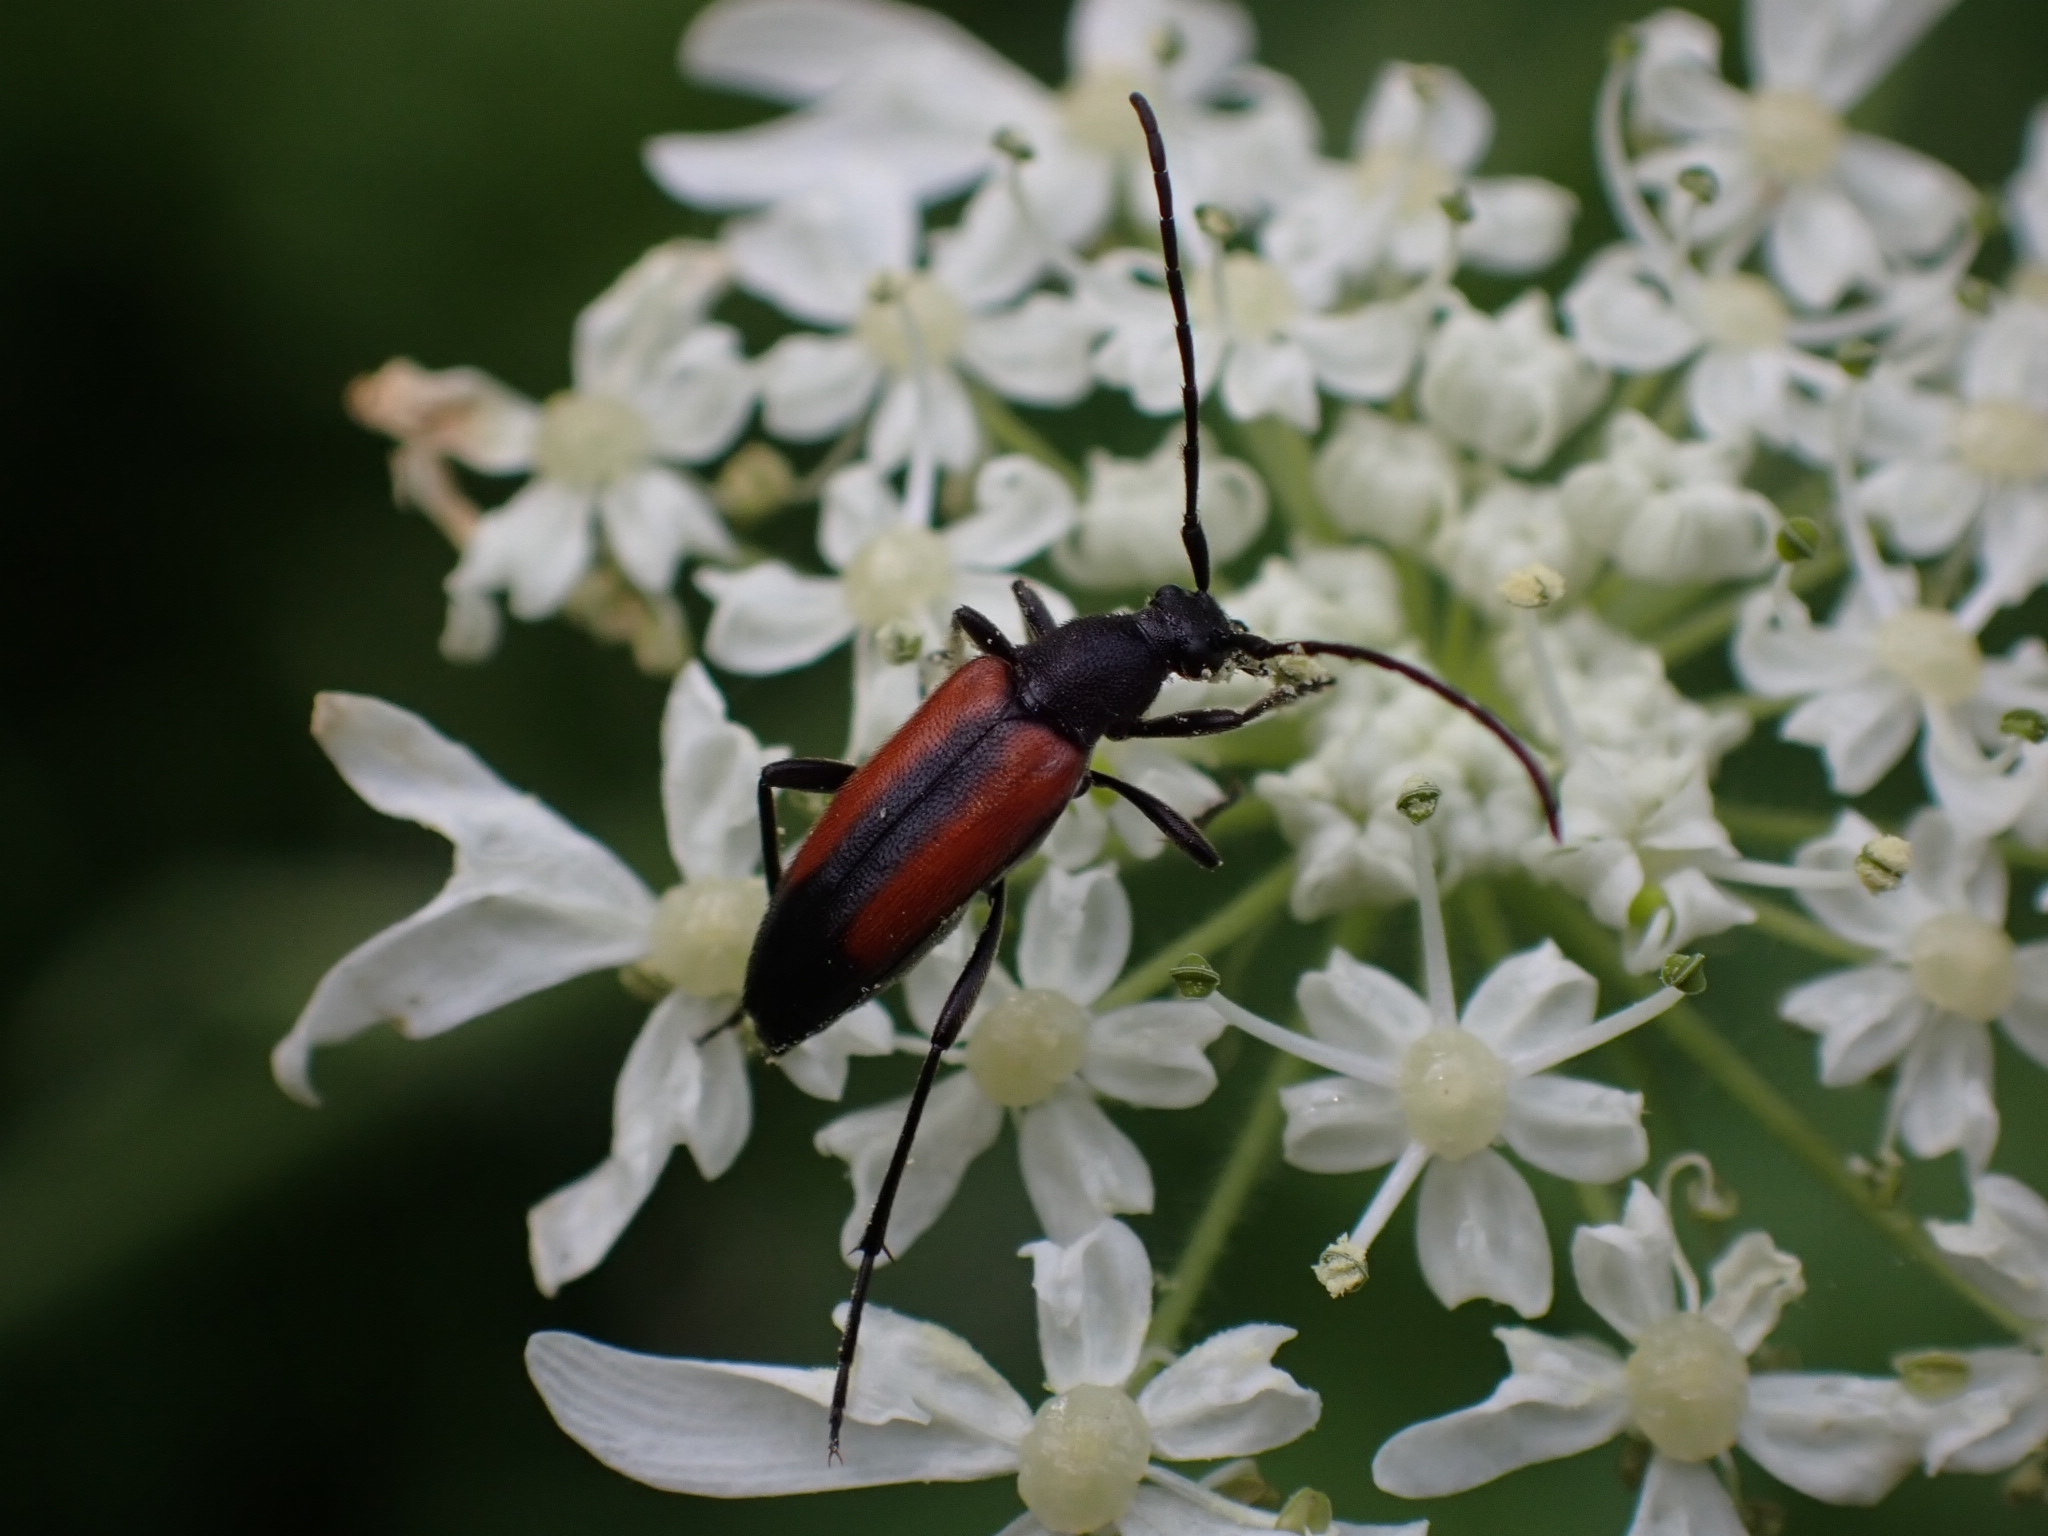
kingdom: Animalia
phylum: Arthropoda
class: Insecta
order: Coleoptera
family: Cerambycidae
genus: Stenurella
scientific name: Stenurella melanura
